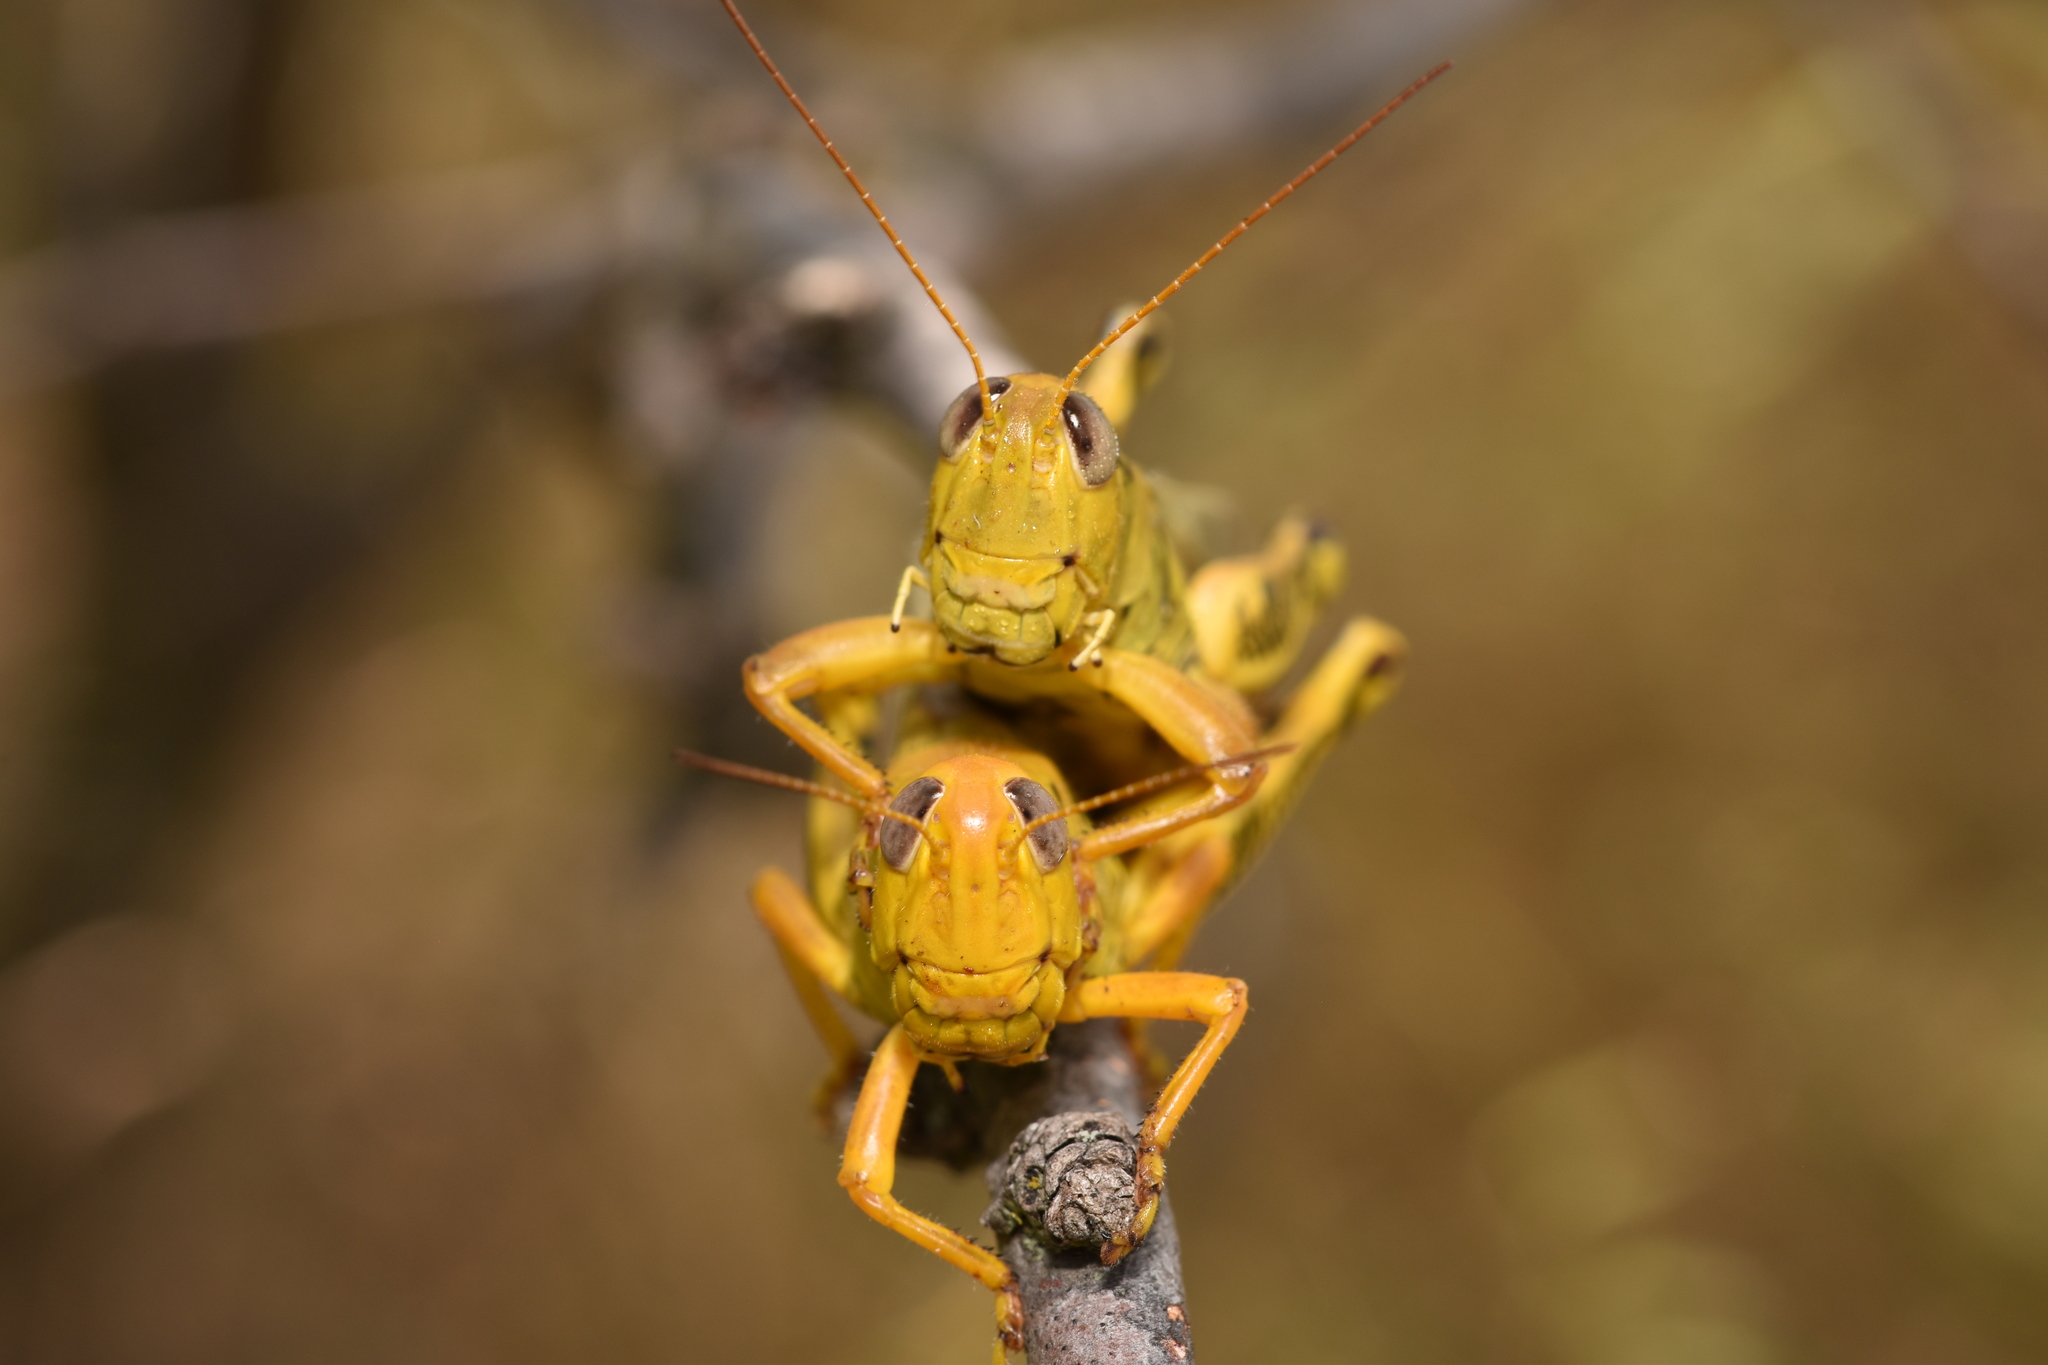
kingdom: Animalia
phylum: Arthropoda
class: Insecta
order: Orthoptera
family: Acrididae
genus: Melanoplus
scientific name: Melanoplus differentialis
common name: Differential grasshopper
